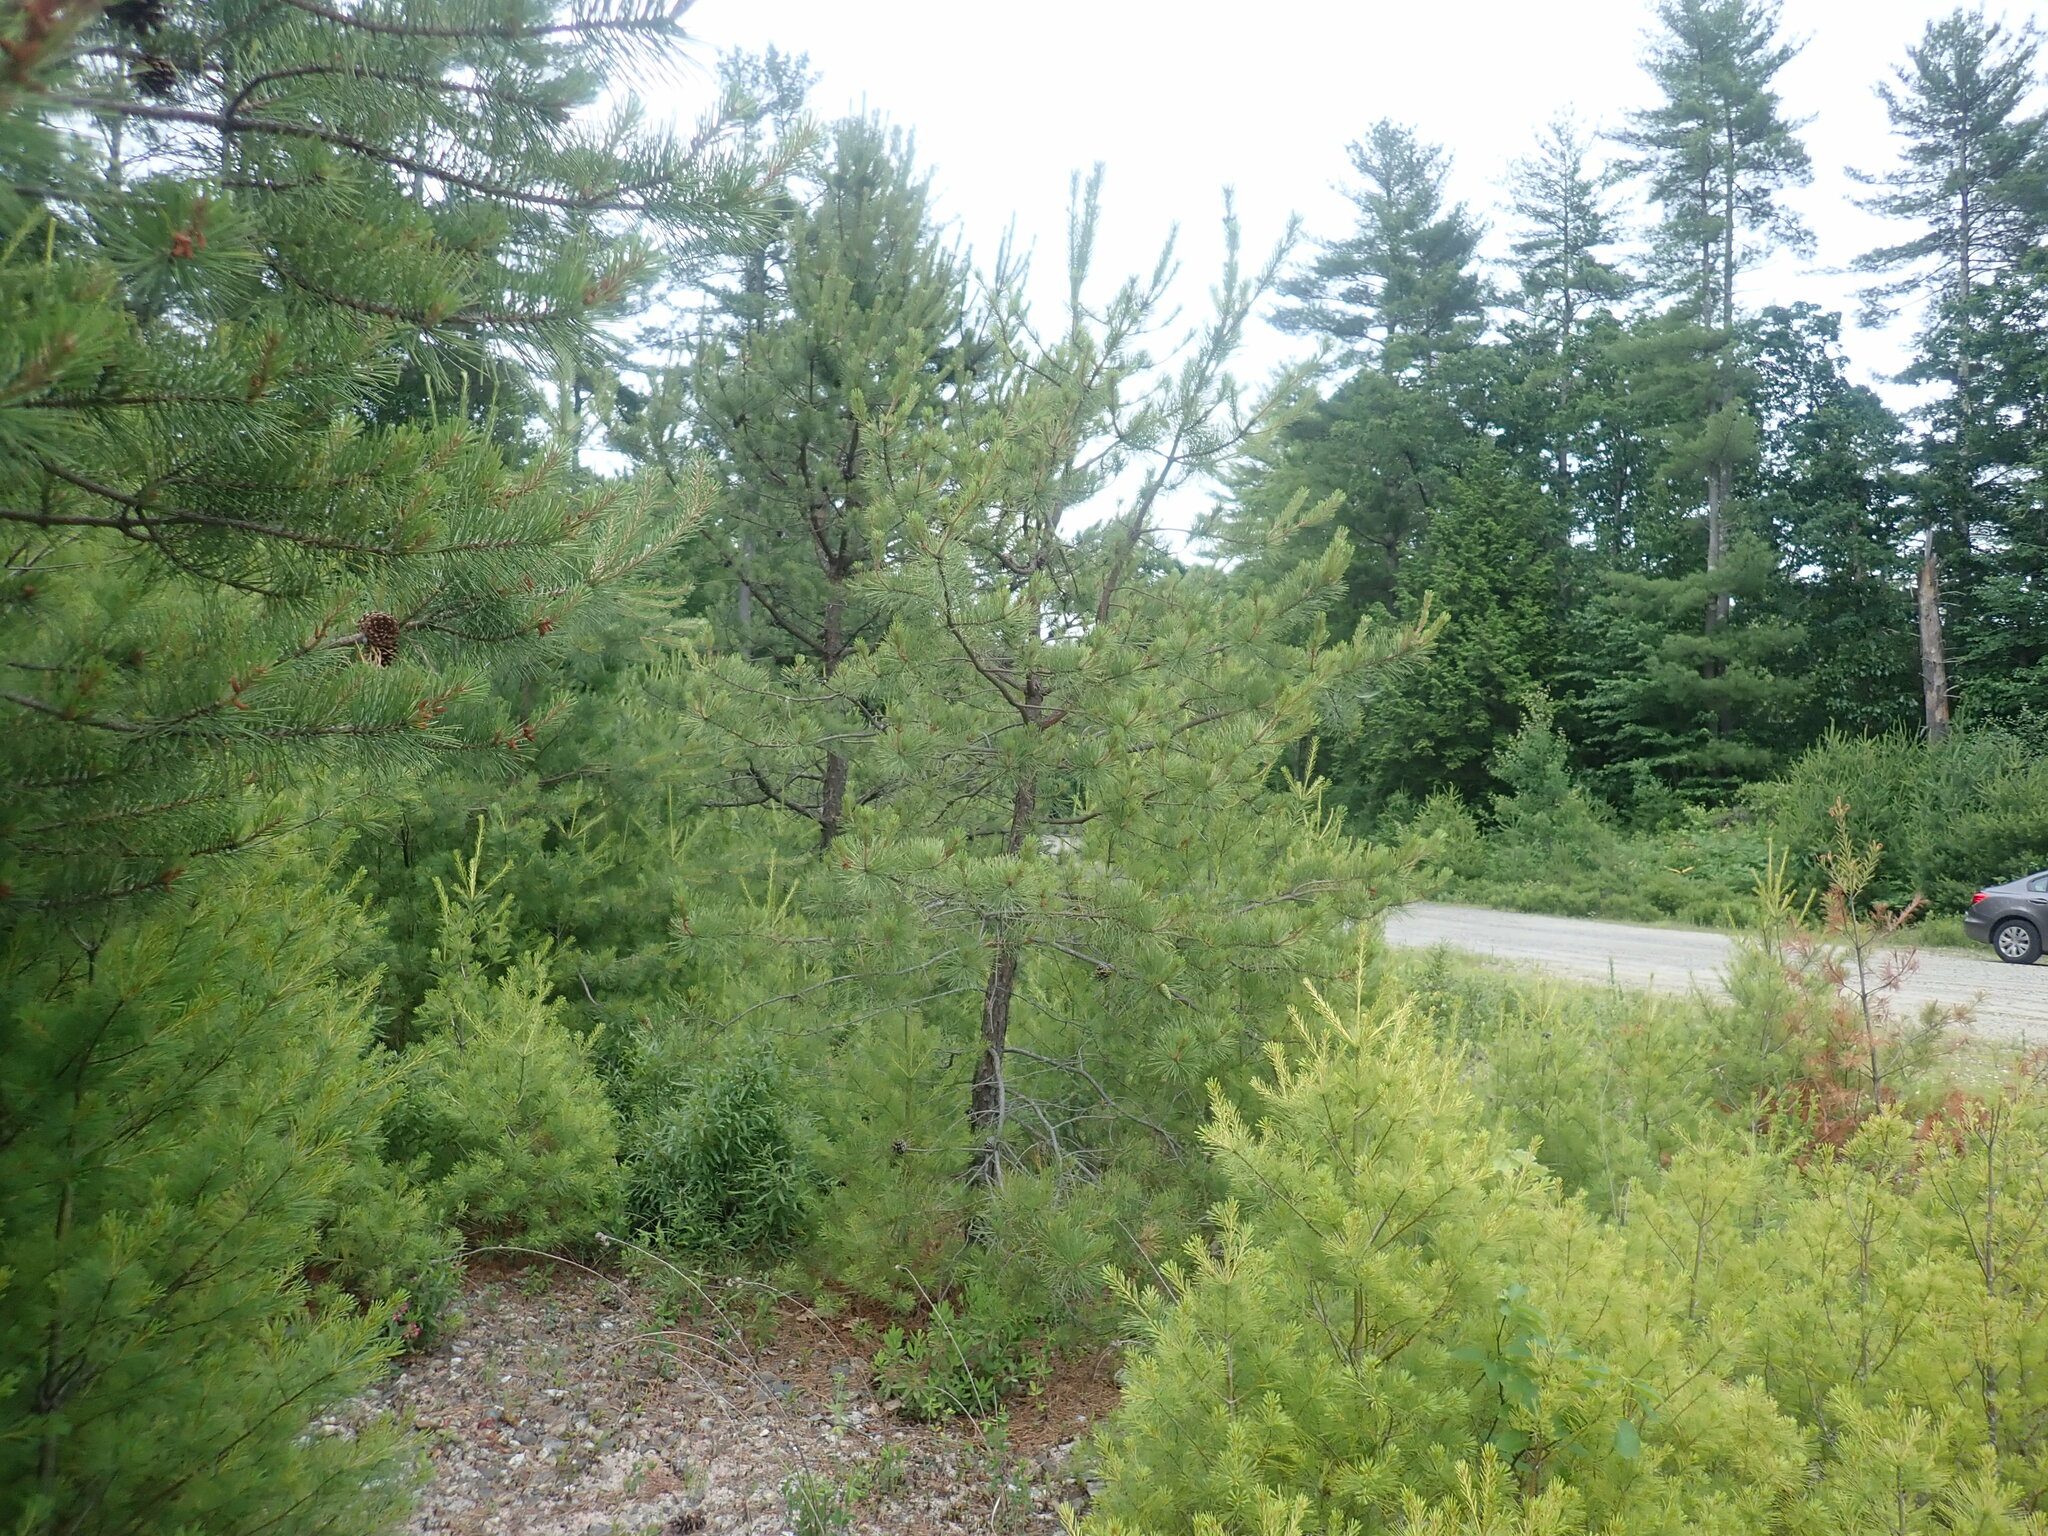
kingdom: Plantae
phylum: Tracheophyta
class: Pinopsida
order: Pinales
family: Pinaceae
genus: Pinus
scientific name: Pinus rigida
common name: Pitch pine
